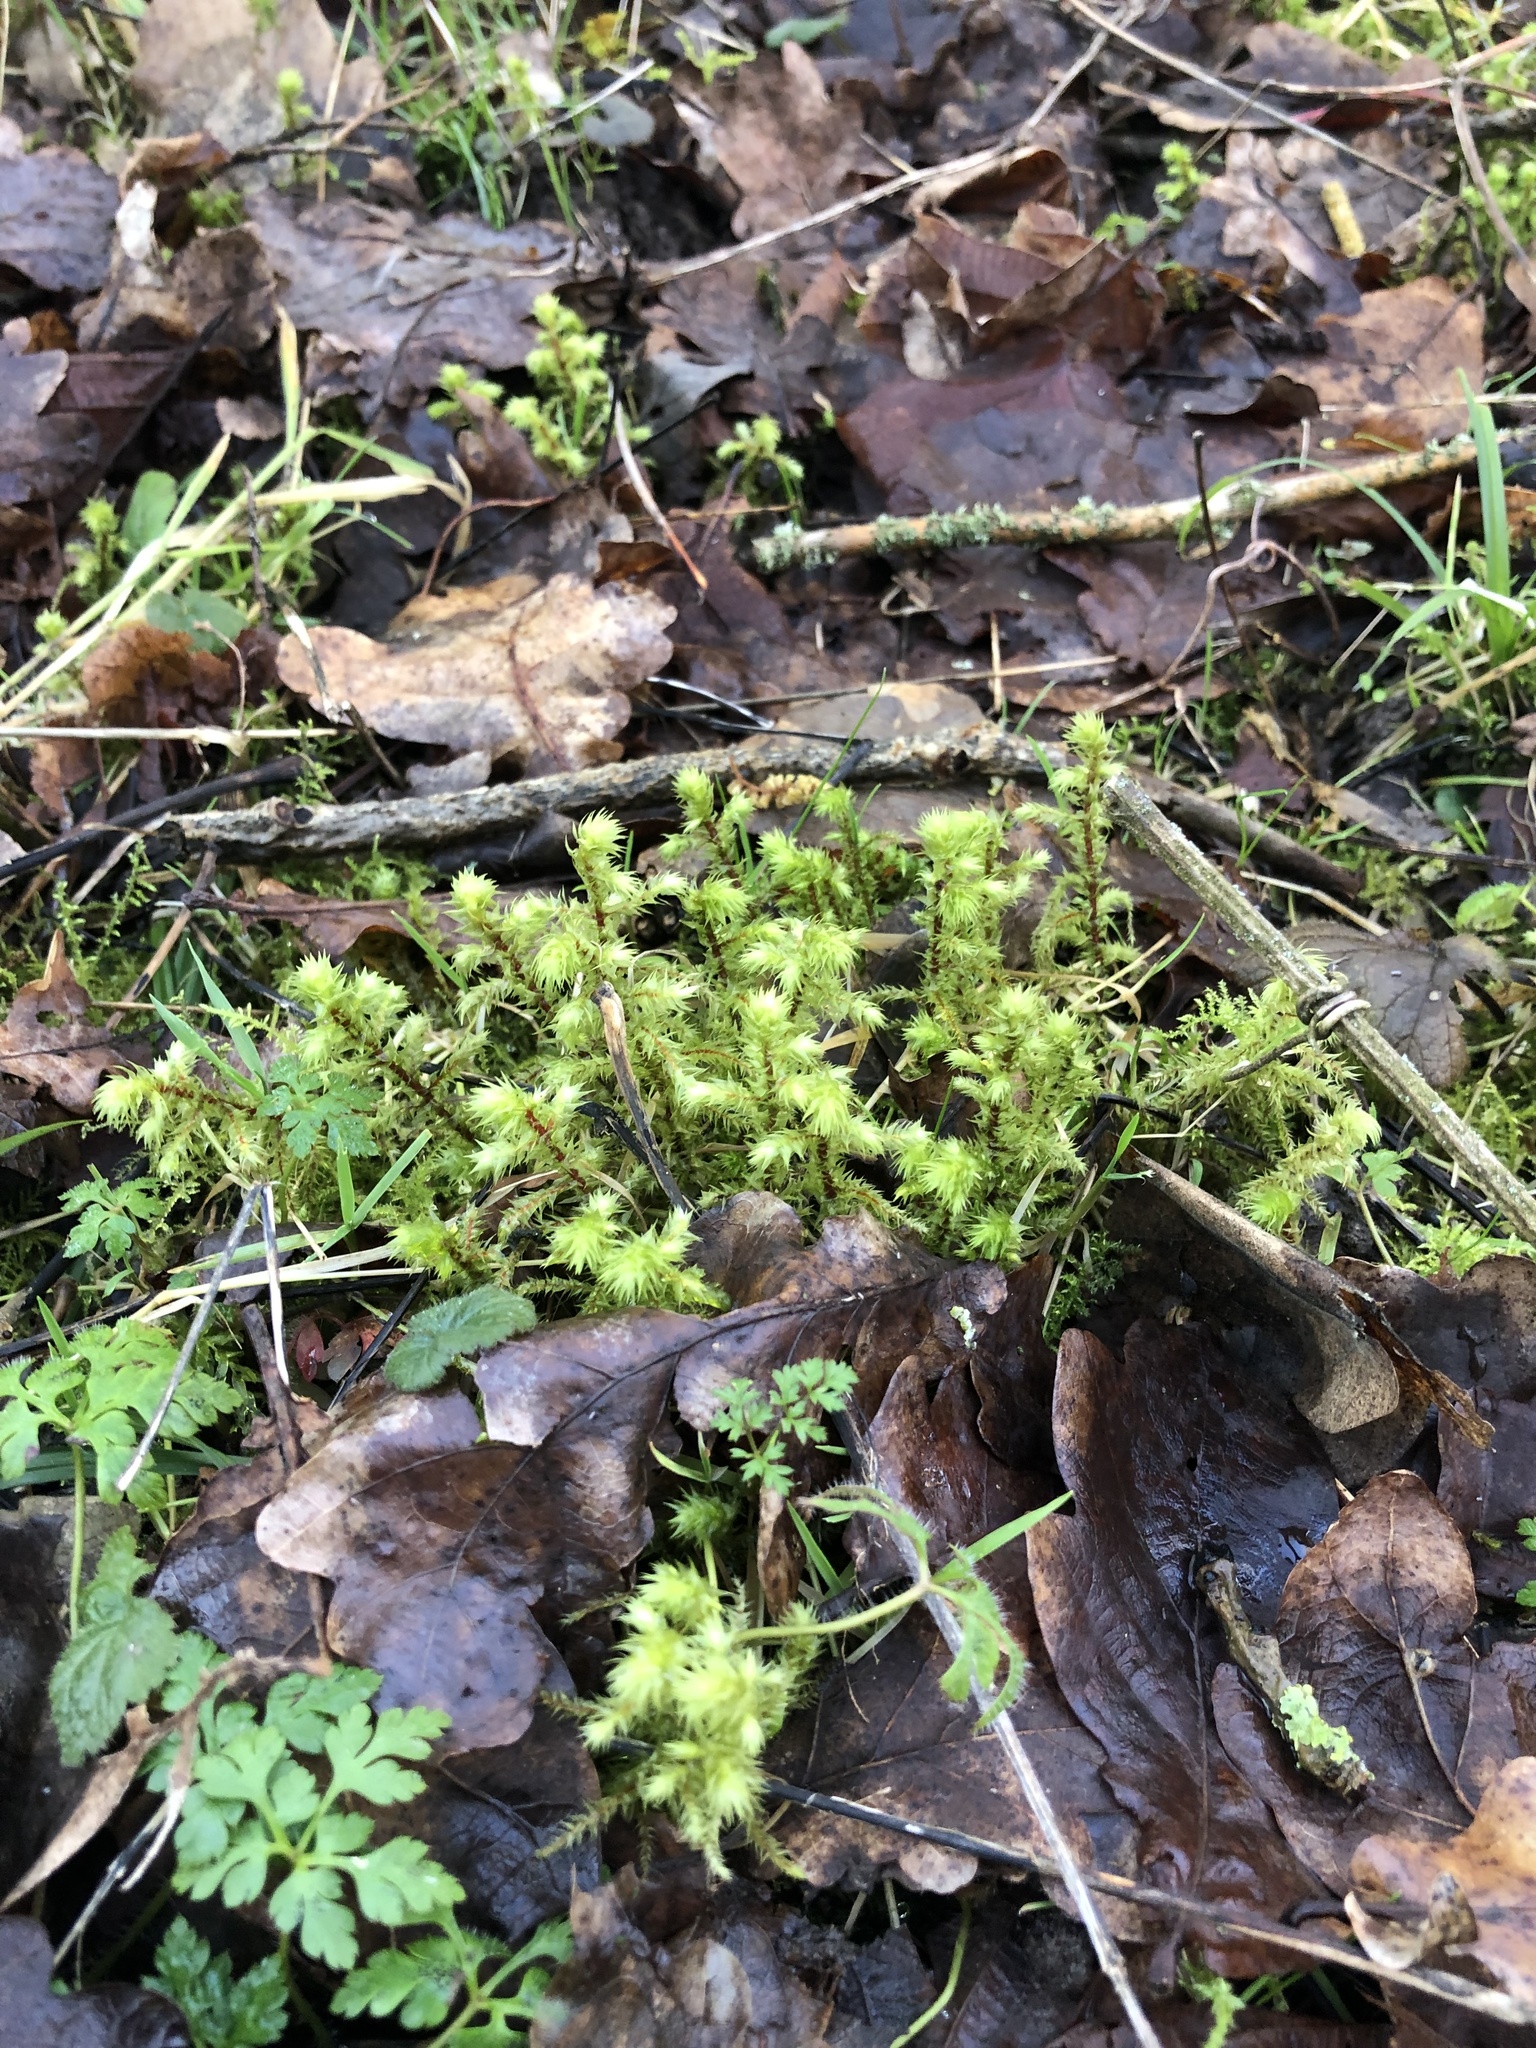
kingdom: Plantae
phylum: Bryophyta
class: Bryopsida
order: Hypnales
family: Hylocomiaceae
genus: Hylocomiadelphus
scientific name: Hylocomiadelphus triquetrus
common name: Rough goose neck moss
